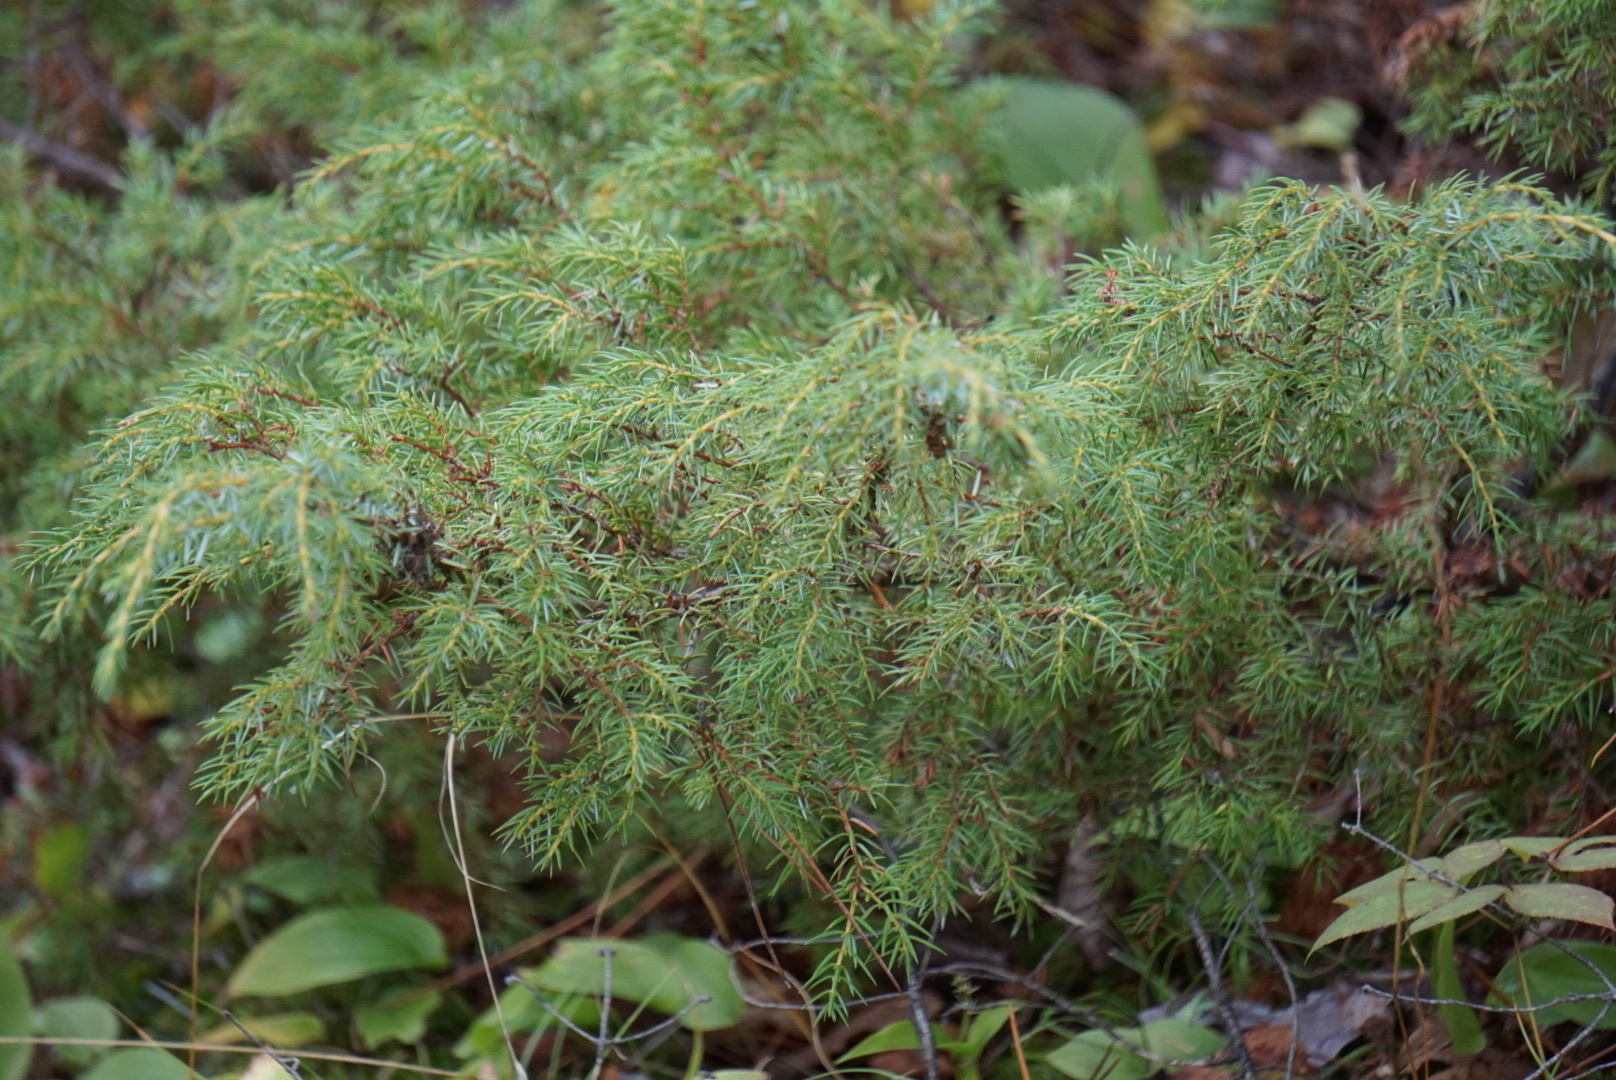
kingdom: Plantae
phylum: Tracheophyta
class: Pinopsida
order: Pinales
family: Cupressaceae
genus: Juniperus
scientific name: Juniperus communis
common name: Common juniper
